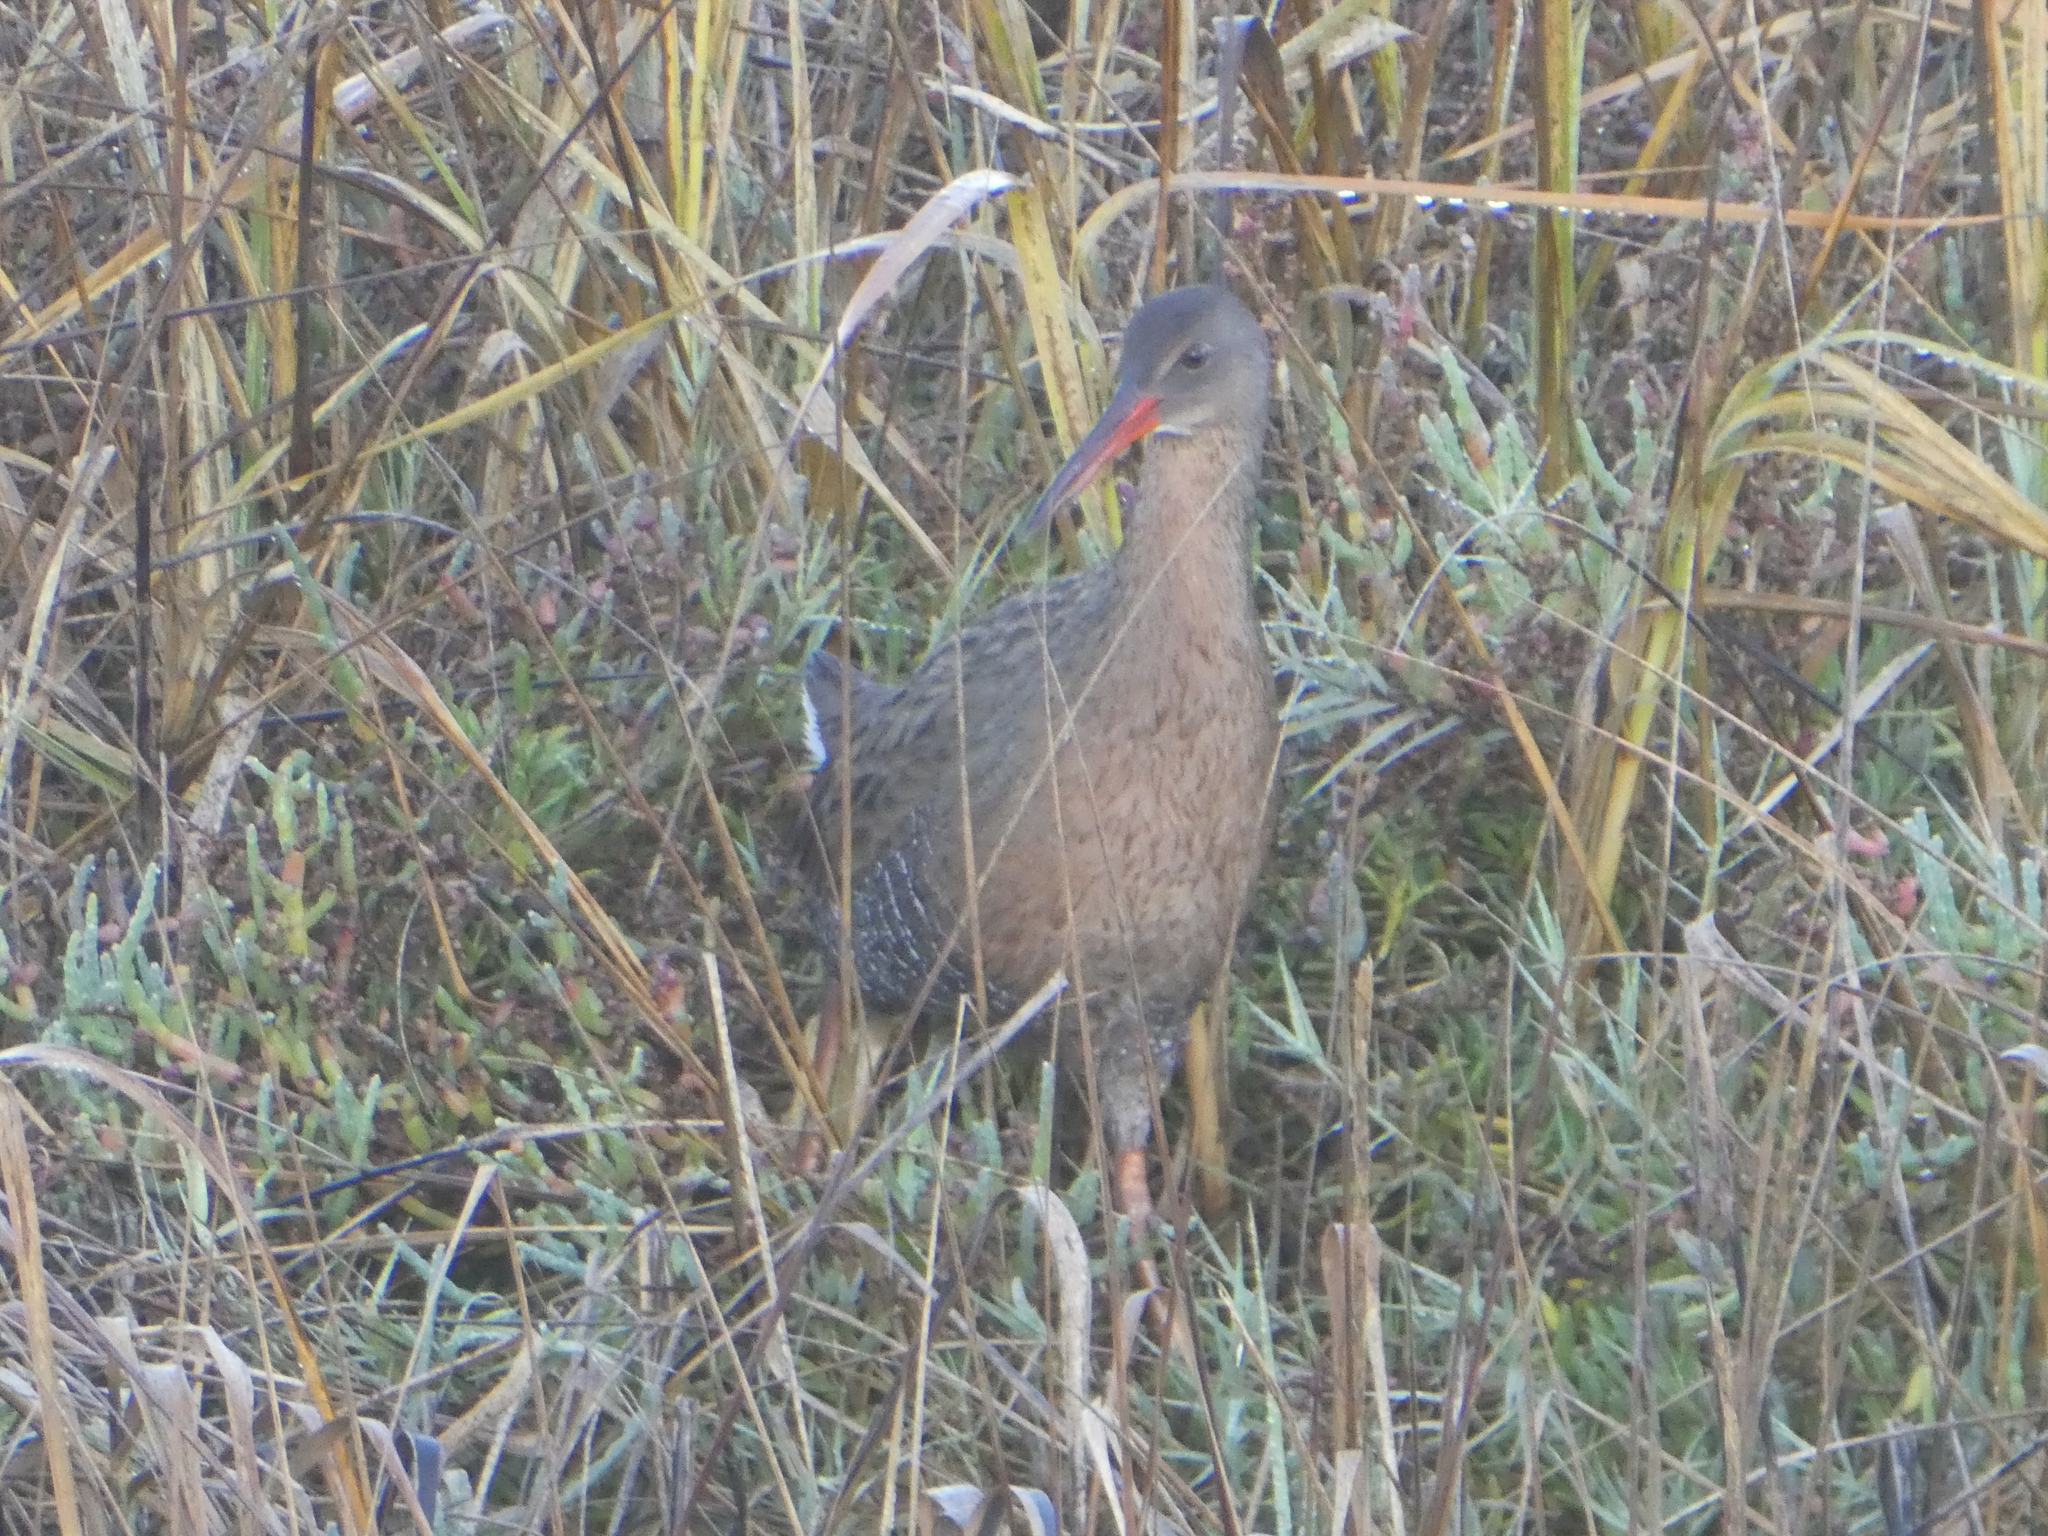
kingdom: Animalia
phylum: Chordata
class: Aves
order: Gruiformes
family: Rallidae
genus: Rallus
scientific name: Rallus obsoletus
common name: Ridgway's rail
